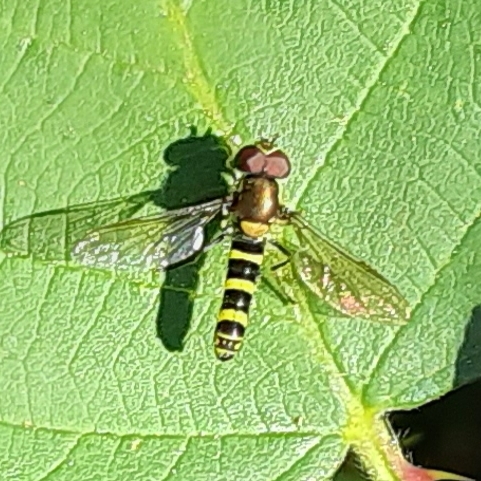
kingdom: Animalia
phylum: Arthropoda
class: Insecta
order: Diptera
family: Syrphidae
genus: Fazia
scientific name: Fazia micrura
